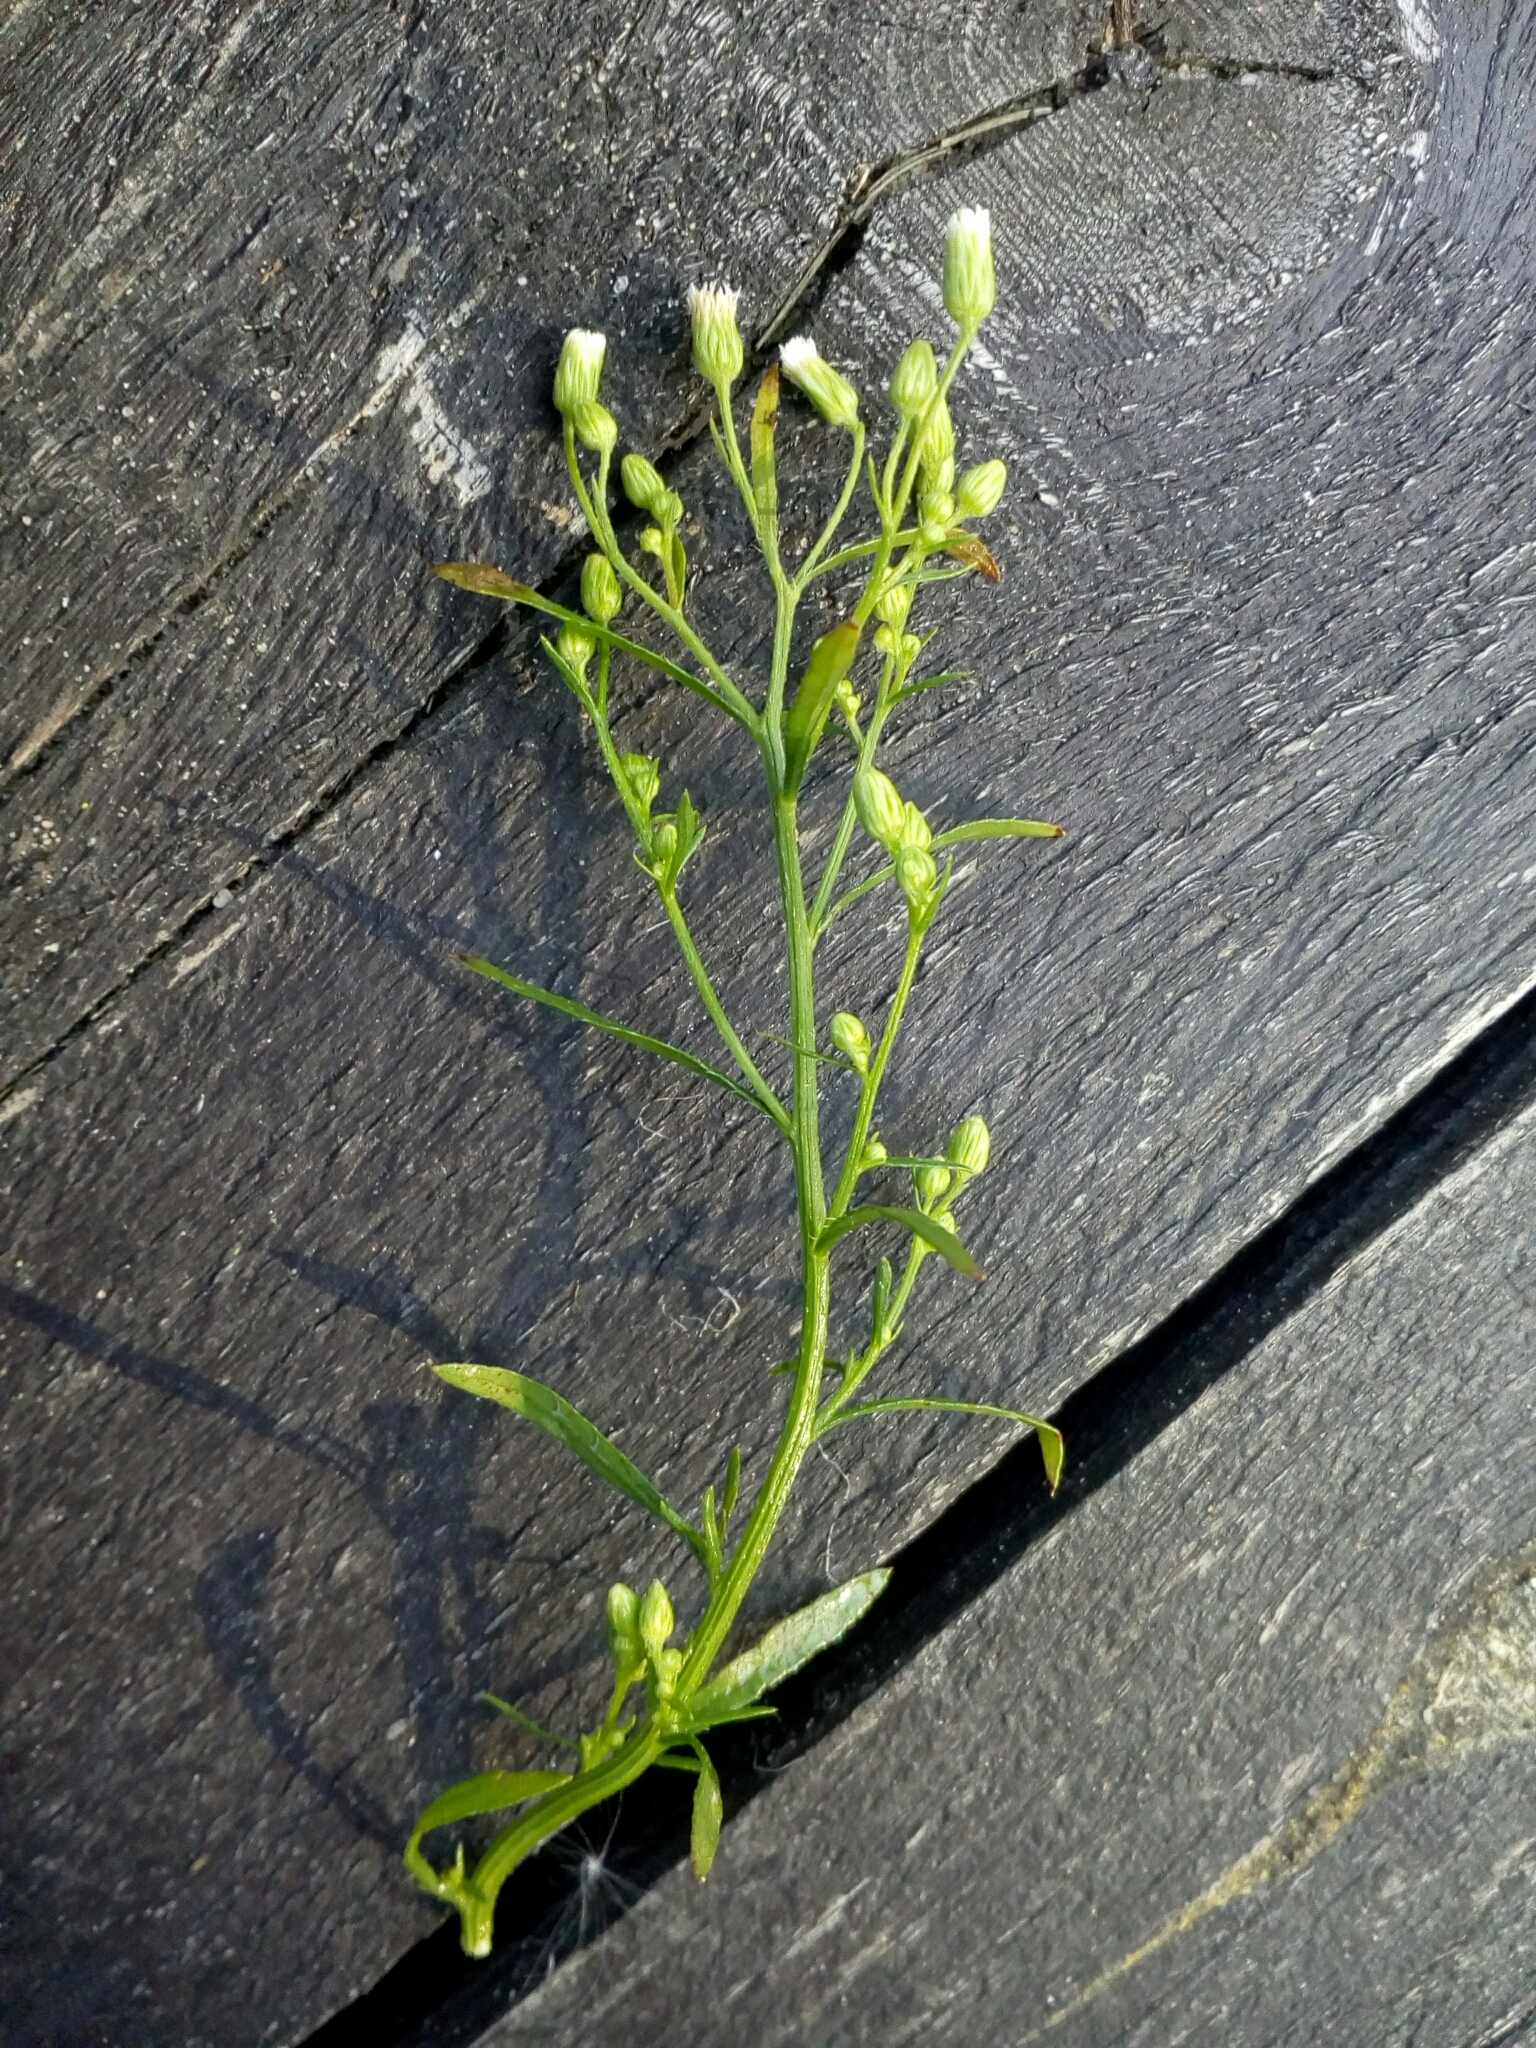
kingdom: Plantae
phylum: Tracheophyta
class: Magnoliopsida
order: Asterales
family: Asteraceae
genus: Erigeron
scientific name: Erigeron canadensis
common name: Canadian fleabane
